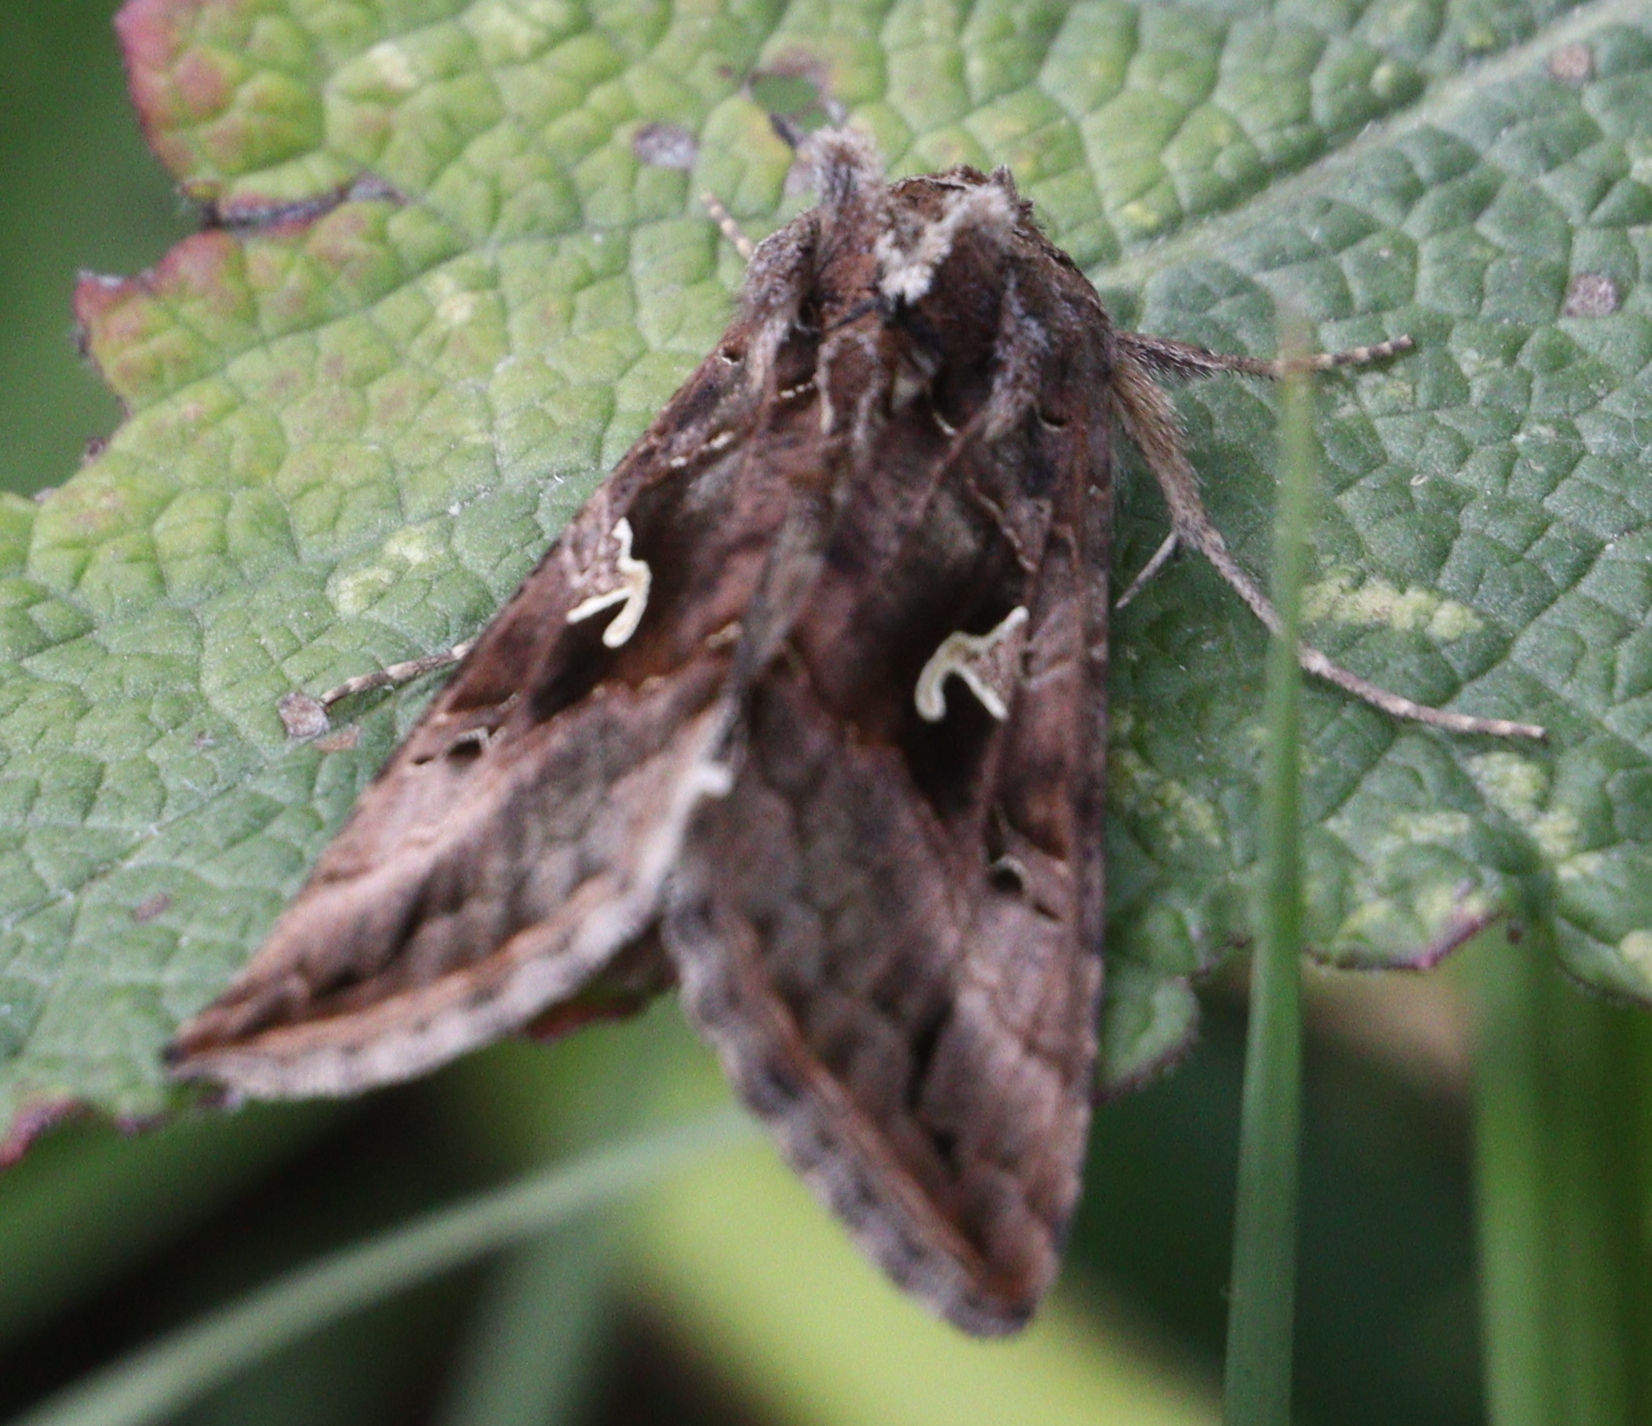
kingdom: Animalia
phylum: Arthropoda
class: Insecta
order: Lepidoptera
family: Noctuidae
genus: Autographa
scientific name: Autographa gamma
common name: Silver y
